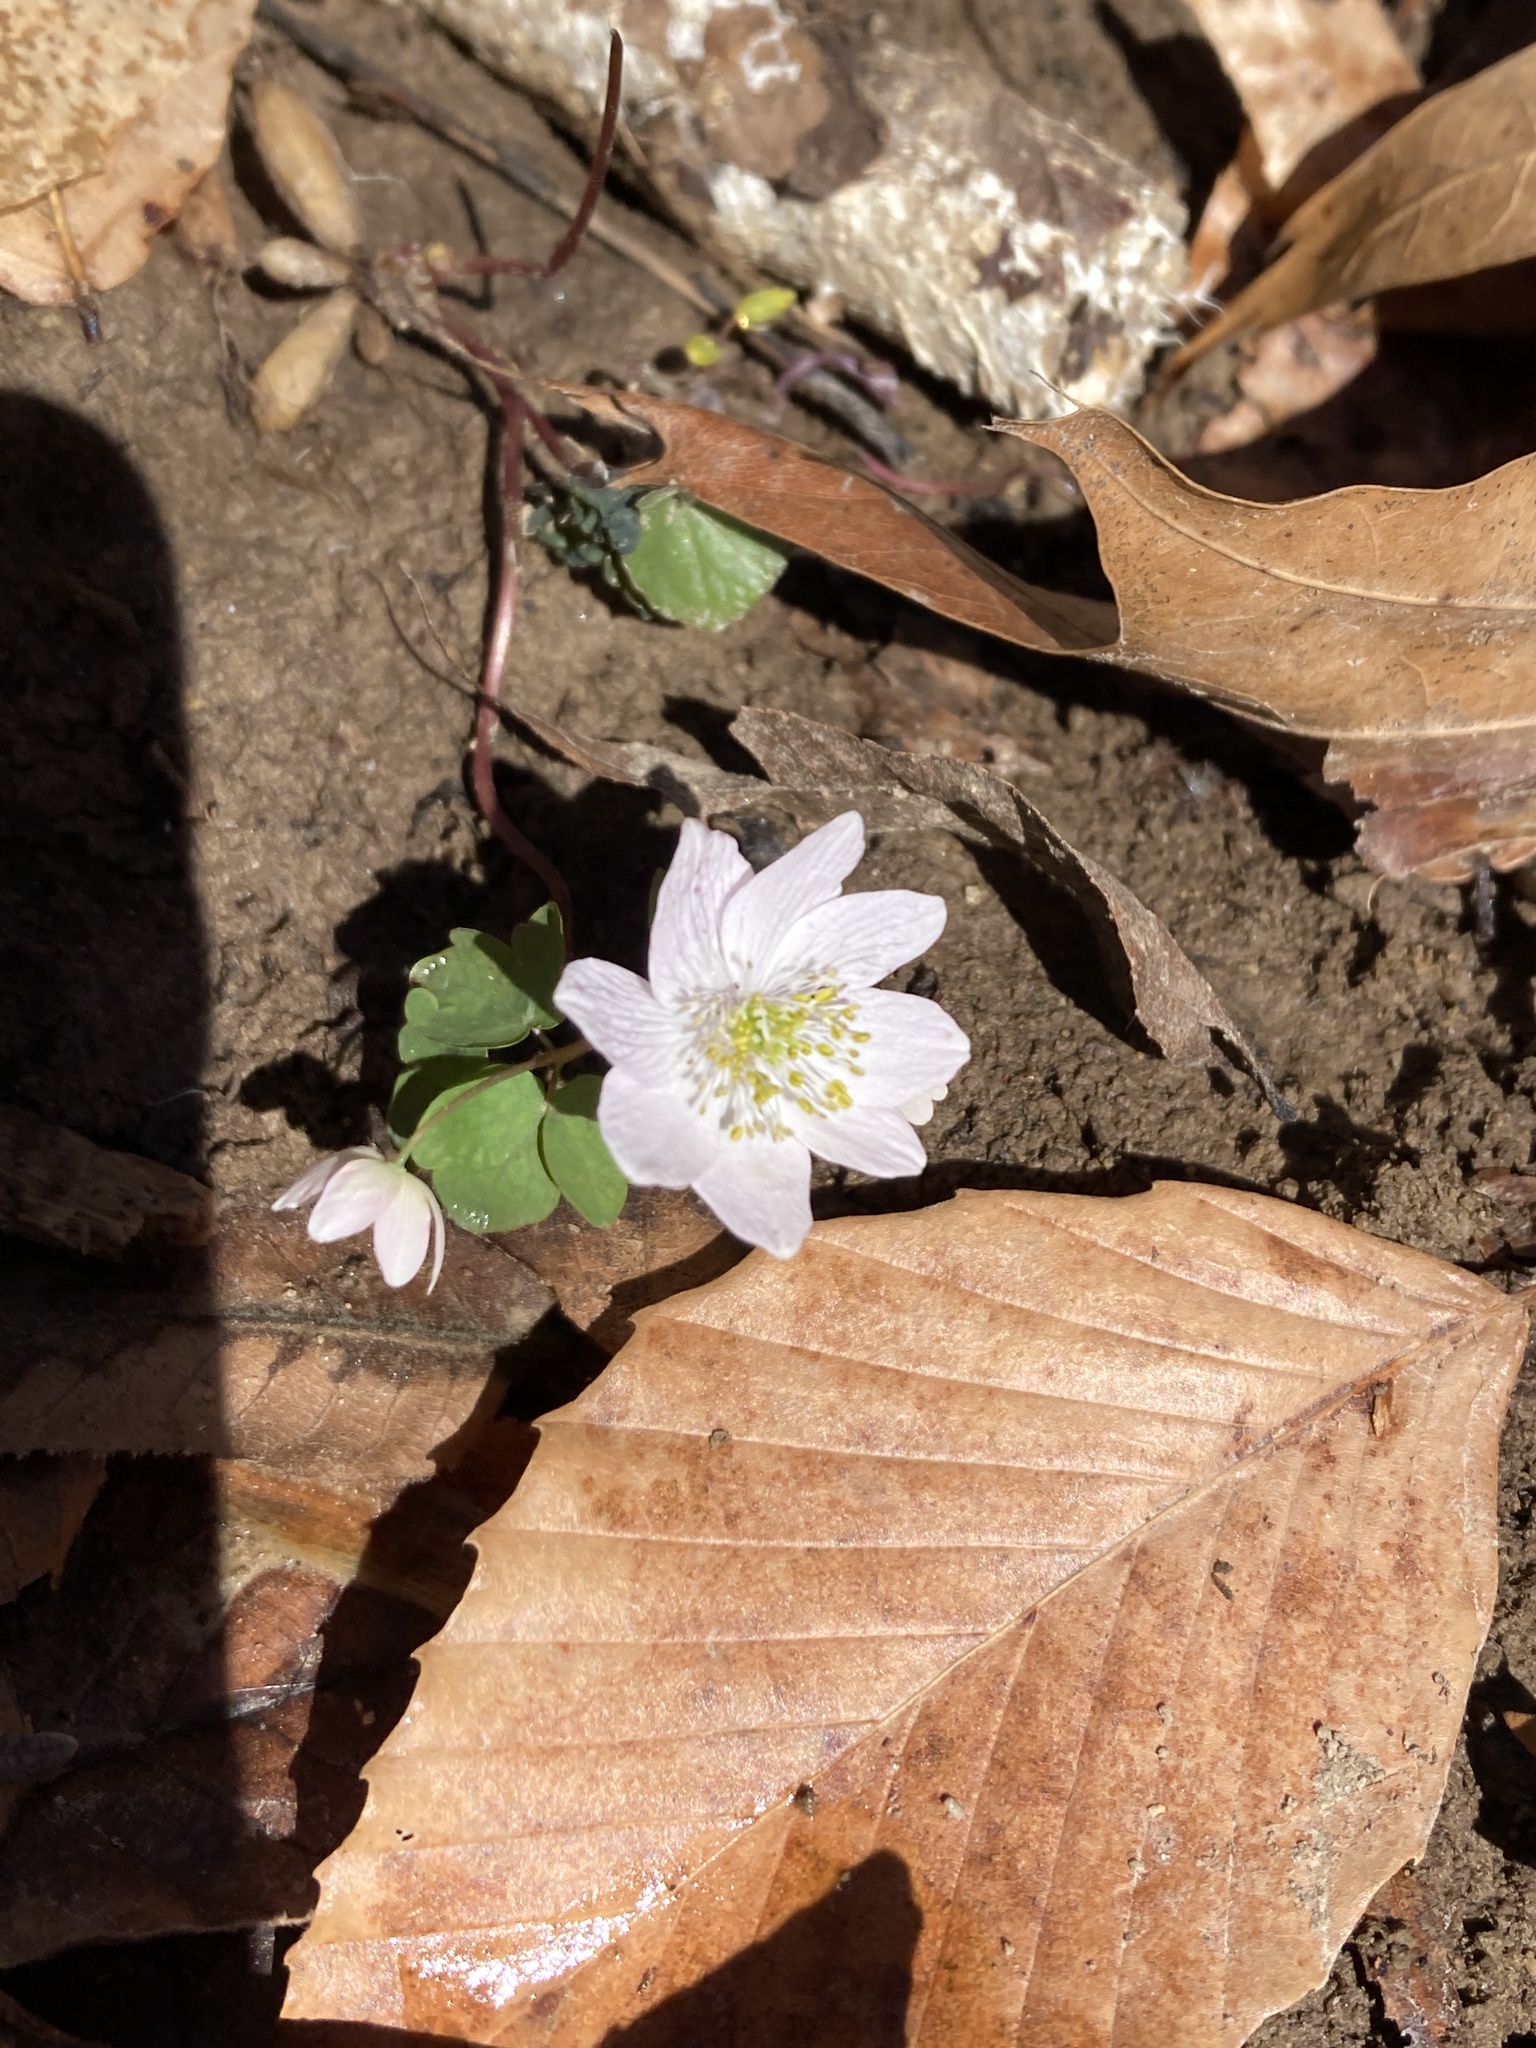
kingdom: Plantae
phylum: Tracheophyta
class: Magnoliopsida
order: Ranunculales
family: Ranunculaceae
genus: Thalictrum
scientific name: Thalictrum thalictroides
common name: Rue-anemone
